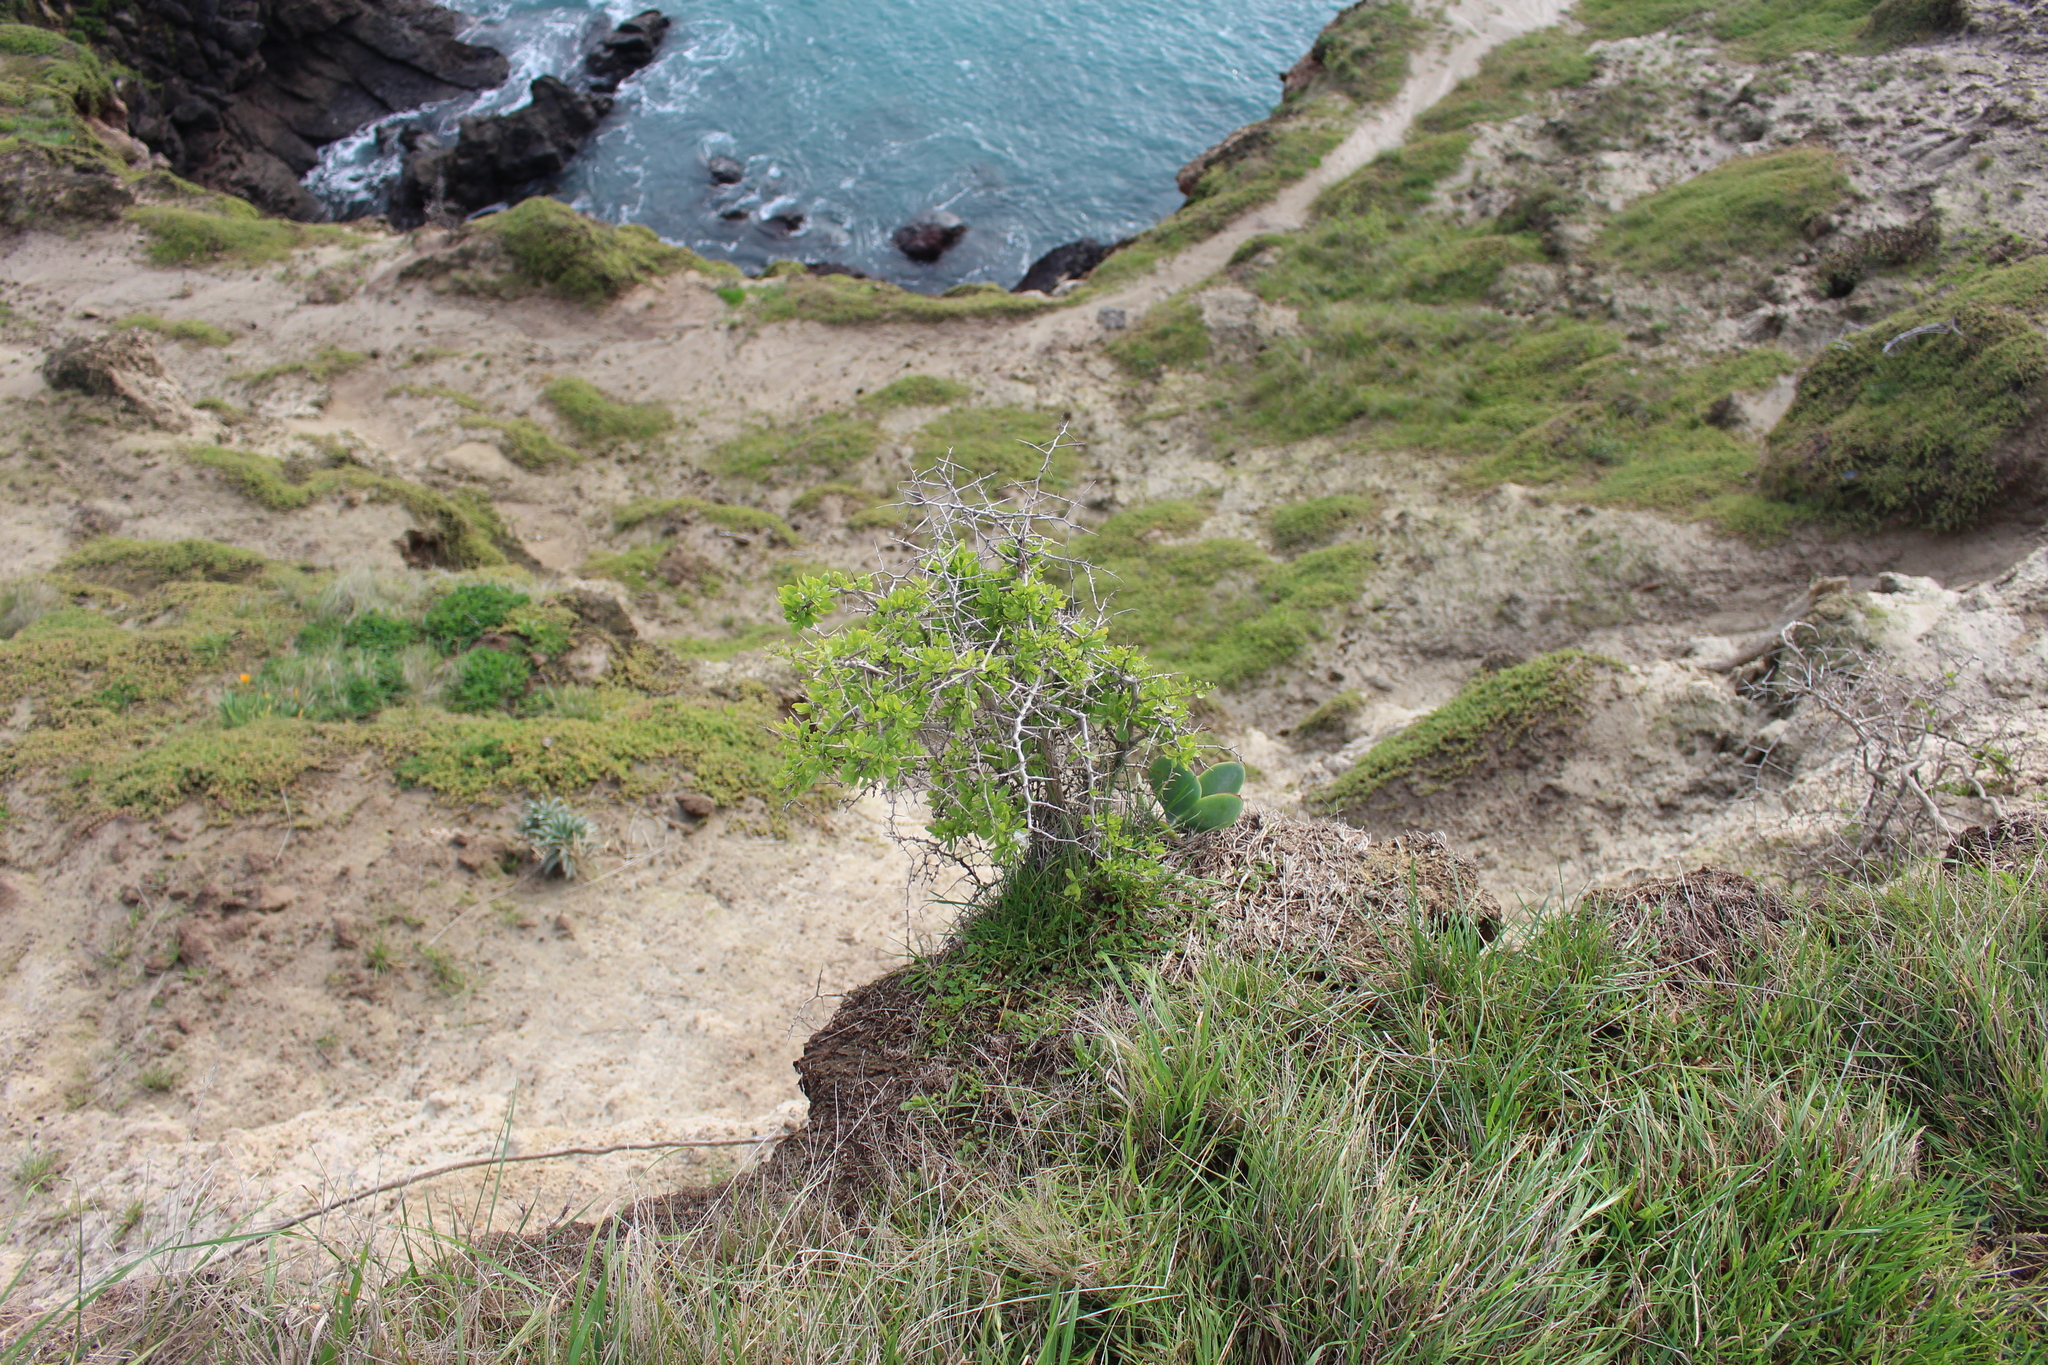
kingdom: Plantae
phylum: Tracheophyta
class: Magnoliopsida
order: Solanales
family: Solanaceae
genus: Lycium
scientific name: Lycium ferocissimum
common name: African boxthorn
